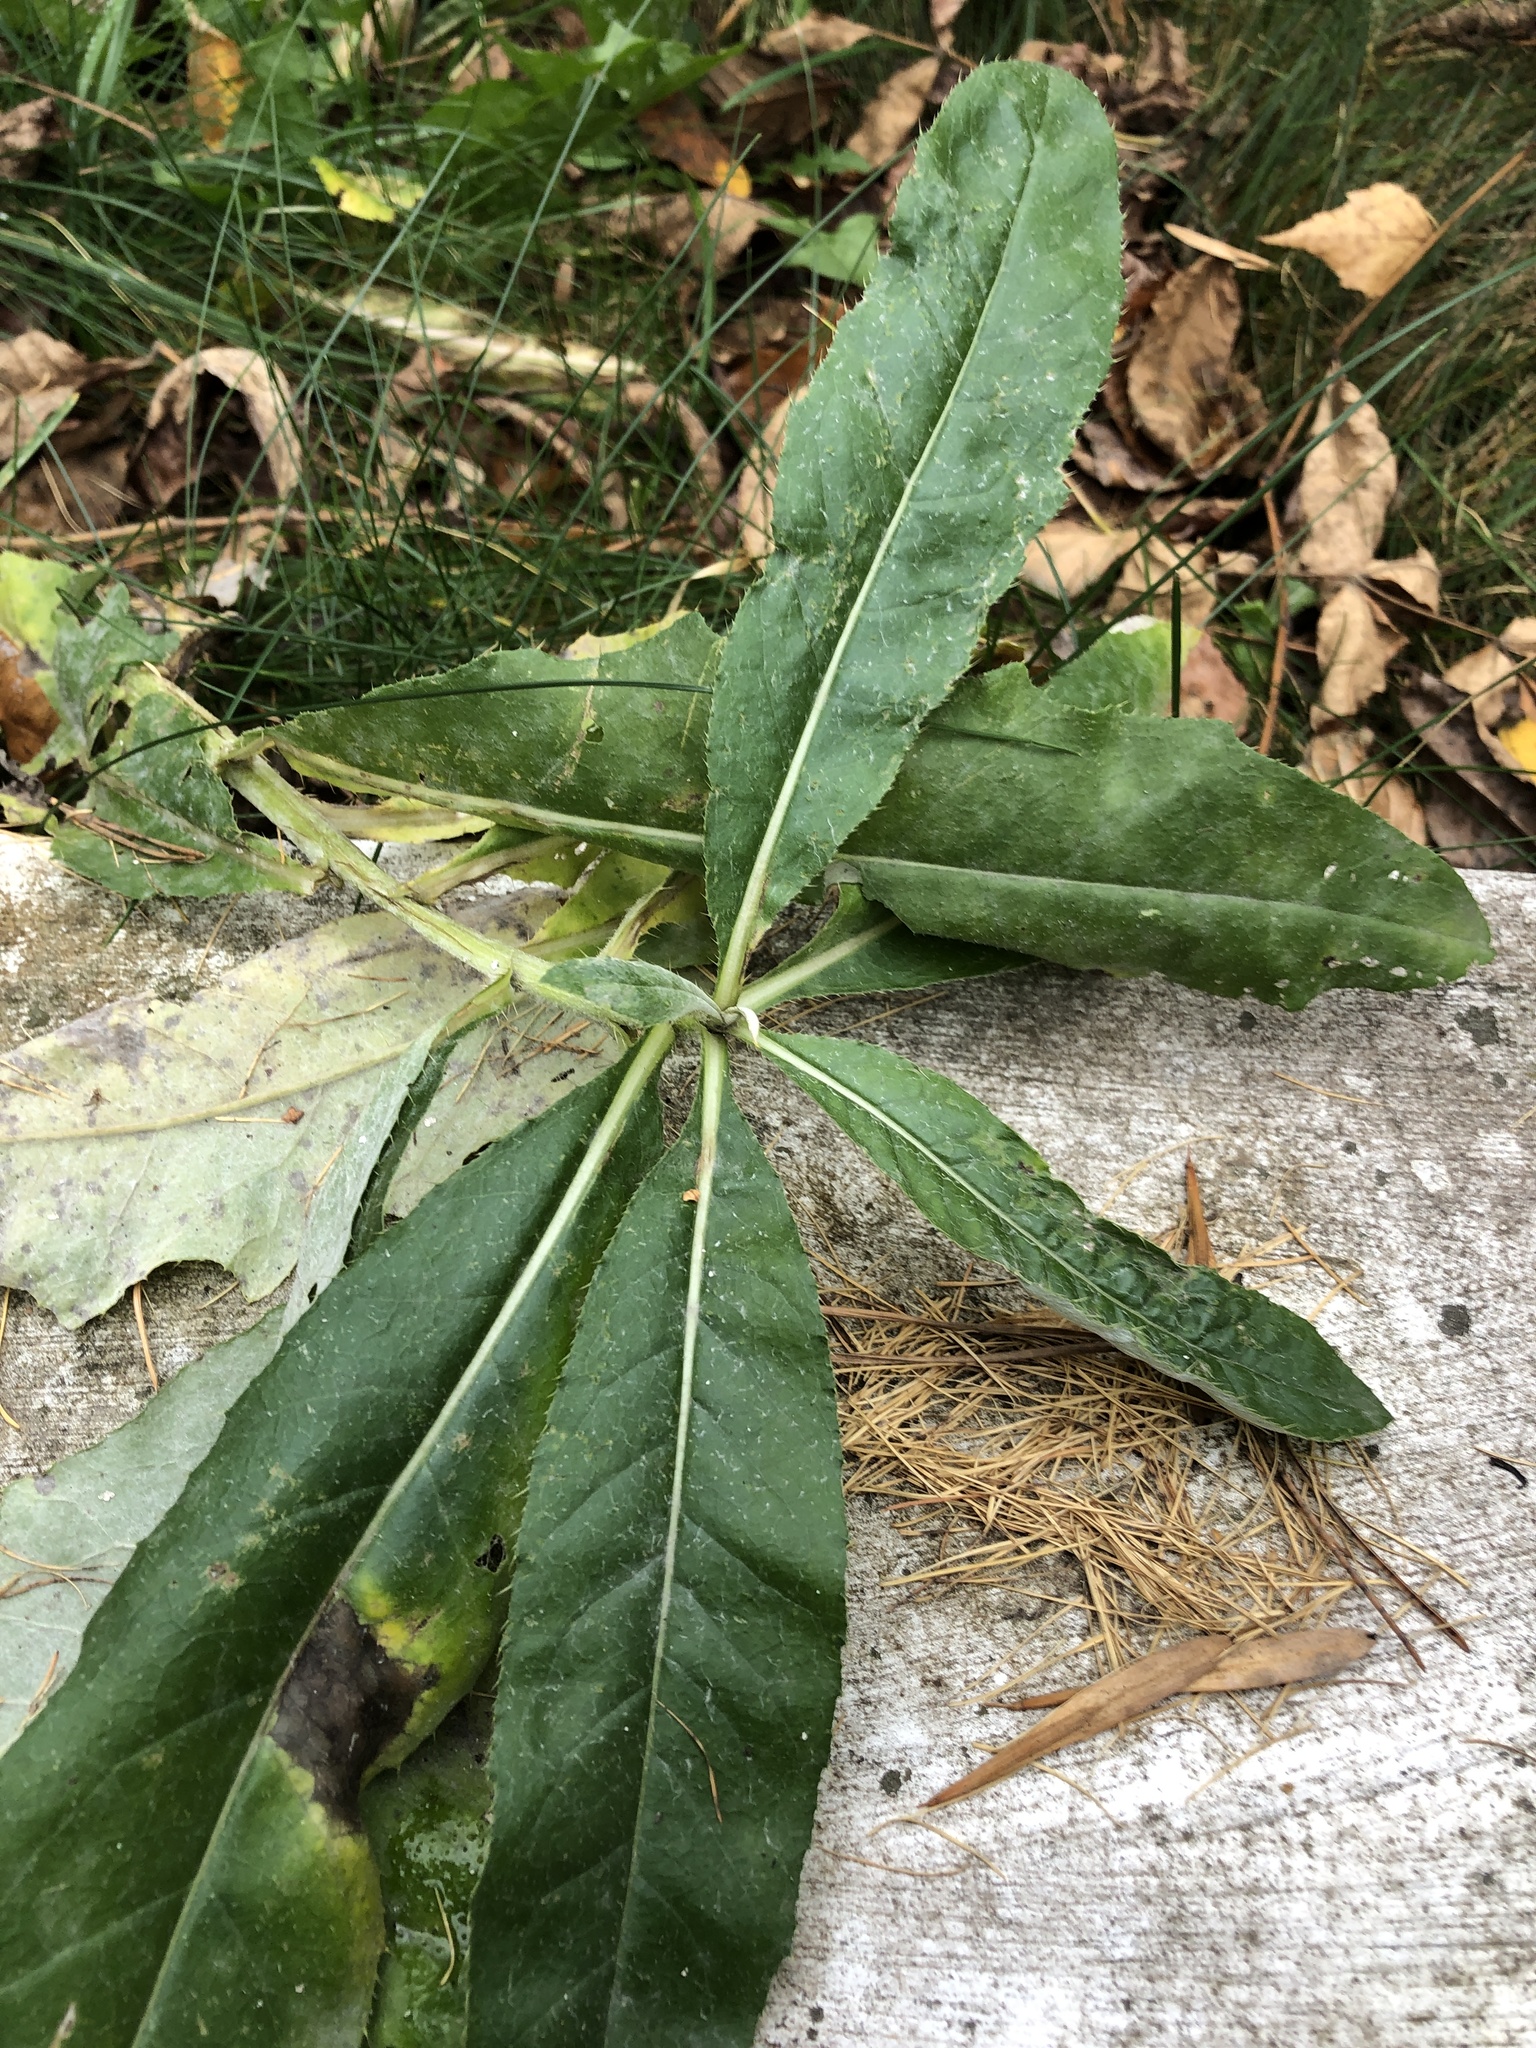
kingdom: Plantae
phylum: Tracheophyta
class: Magnoliopsida
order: Asterales
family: Asteraceae
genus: Cirsium
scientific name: Cirsium arvense
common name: Creeping thistle
